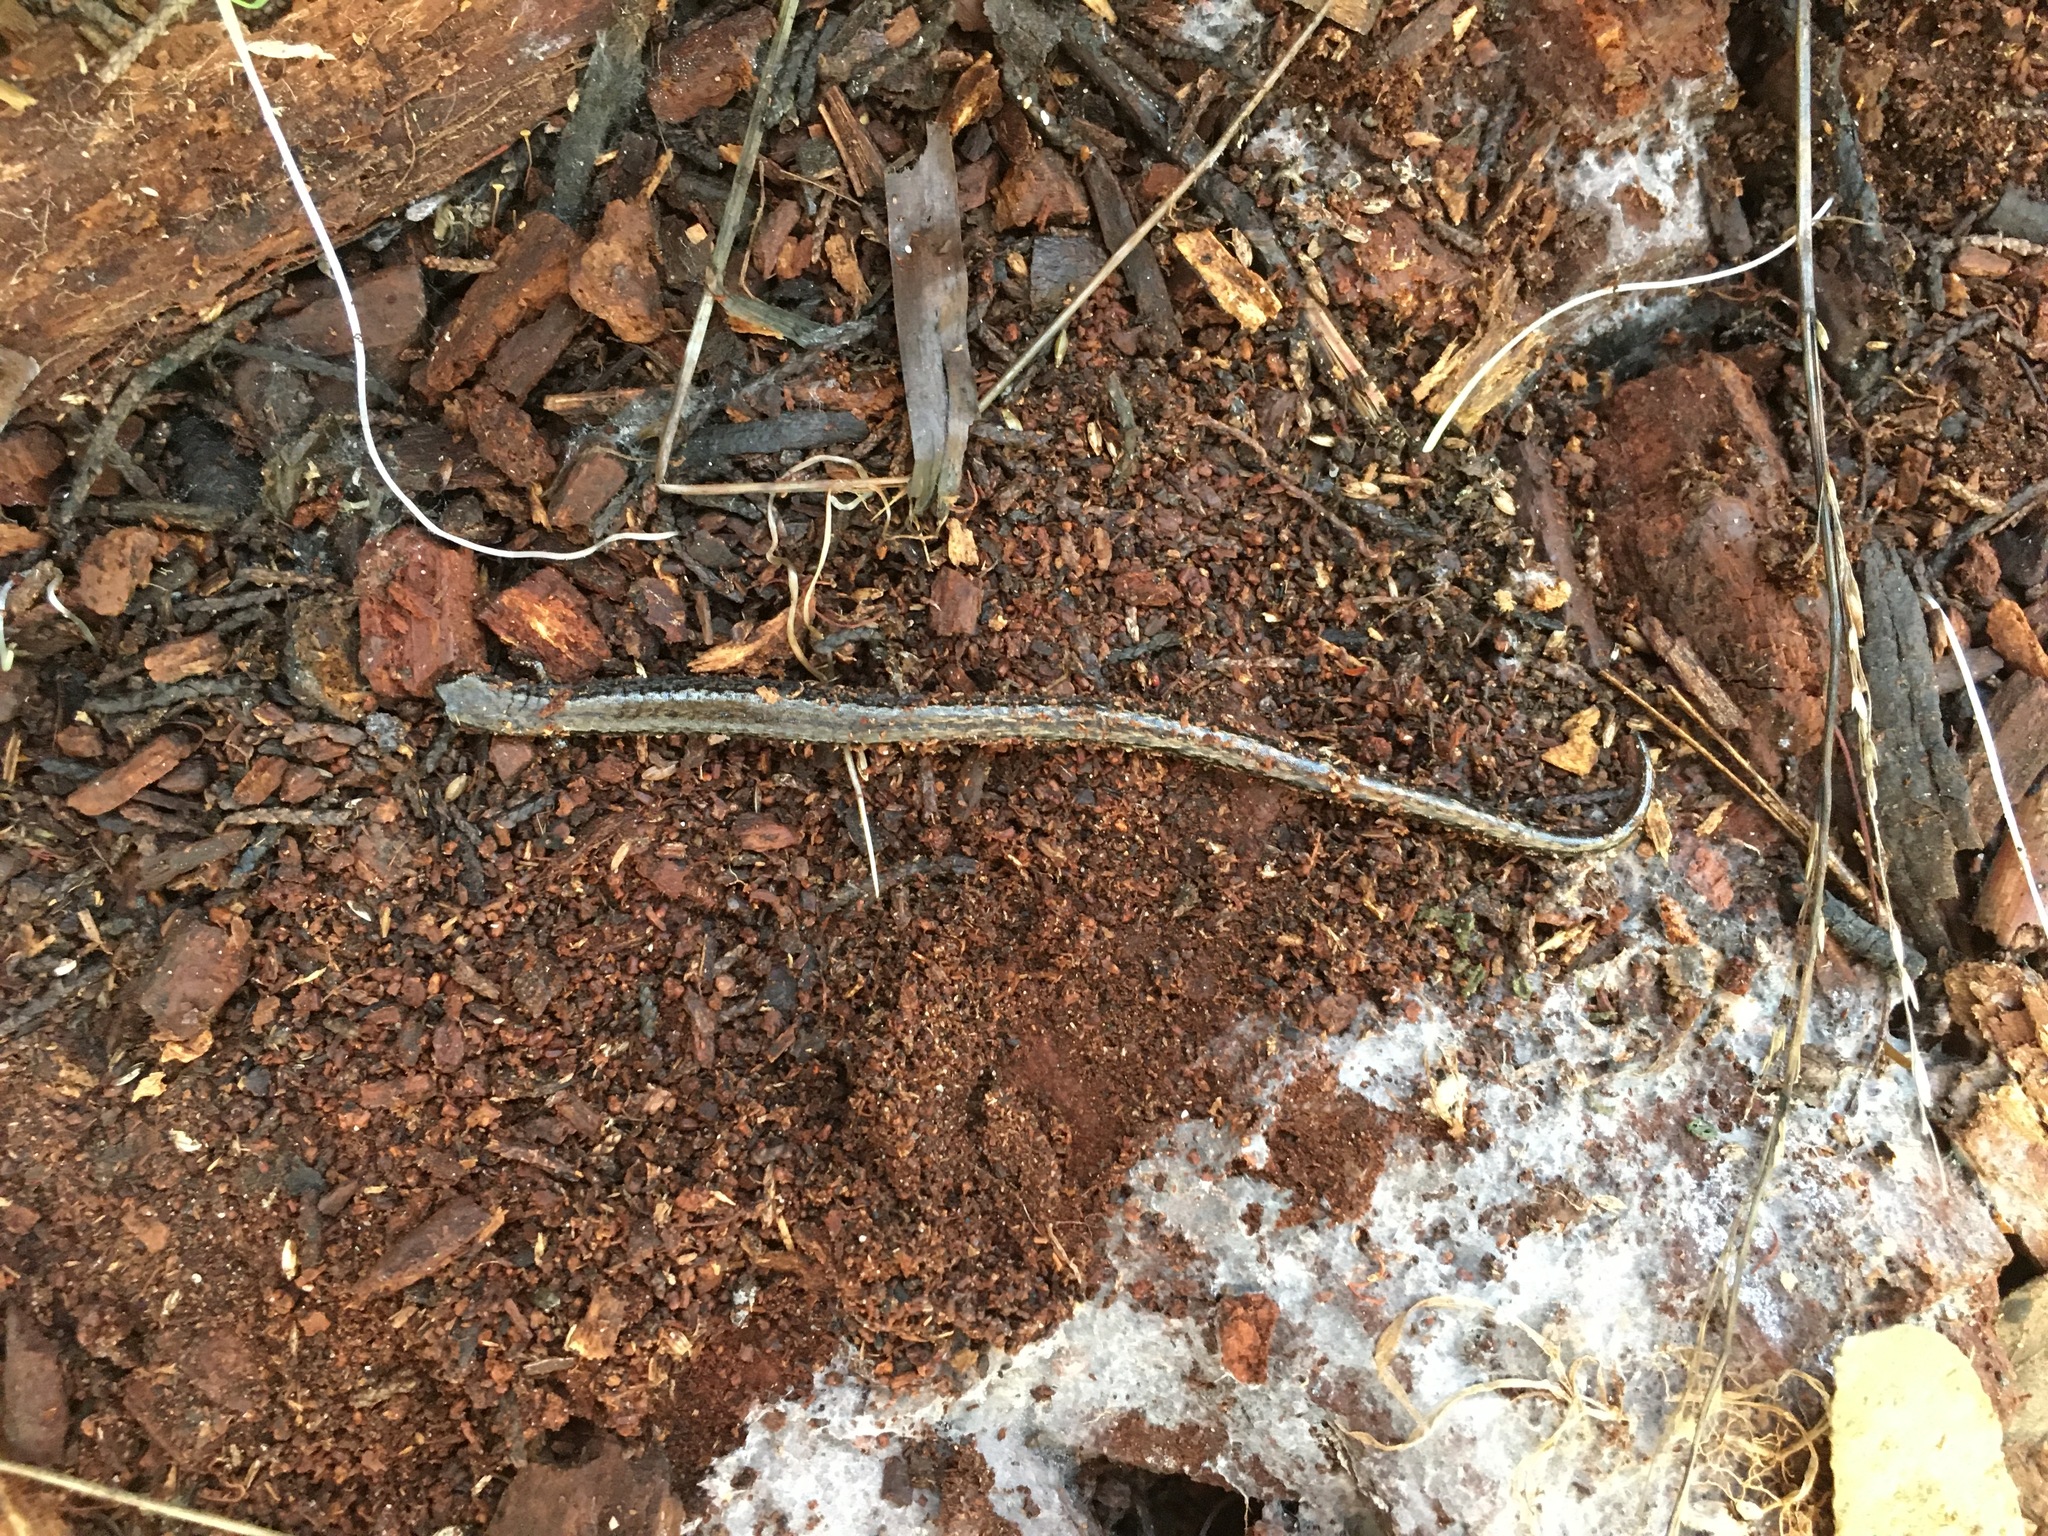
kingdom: Animalia
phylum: Chordata
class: Amphibia
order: Caudata
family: Plethodontidae
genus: Batrachoseps
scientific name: Batrachoseps attenuatus
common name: California slender salamander
